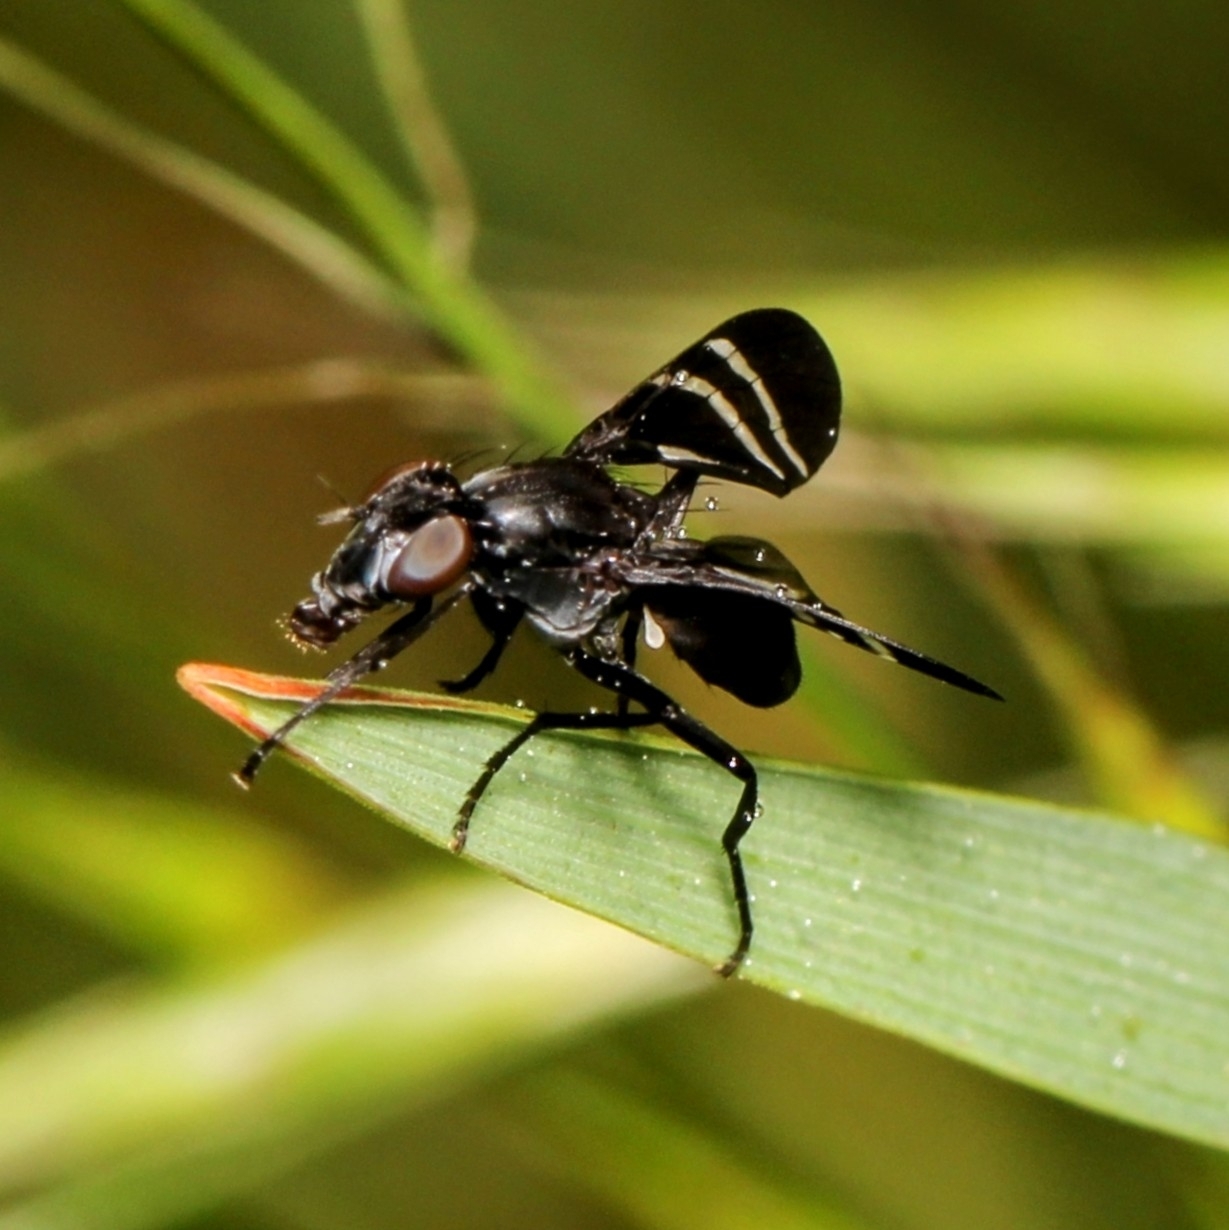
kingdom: Animalia
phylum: Arthropoda
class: Insecta
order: Diptera
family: Ulidiidae
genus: Tritoxa
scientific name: Tritoxa flexa
